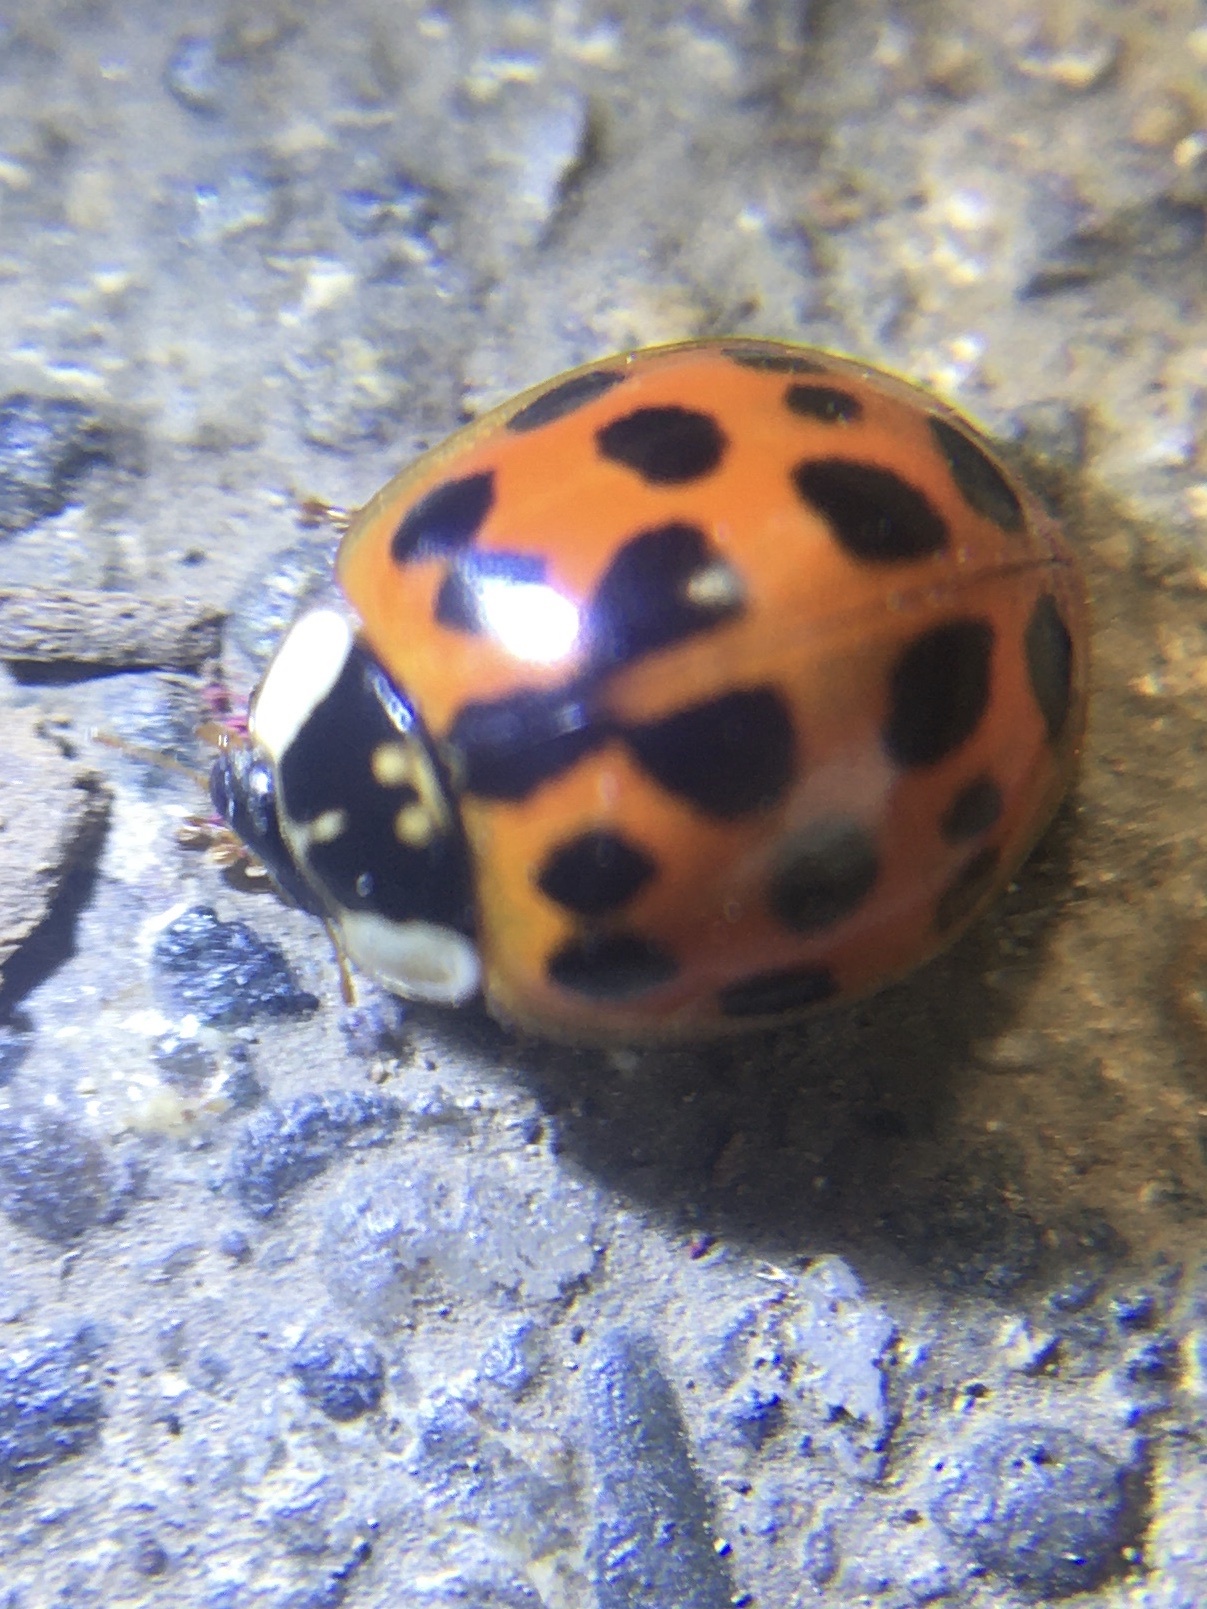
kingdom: Animalia
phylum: Arthropoda
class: Insecta
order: Coleoptera
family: Coccinellidae
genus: Harmonia
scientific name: Harmonia axyridis
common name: Harlequin ladybird
